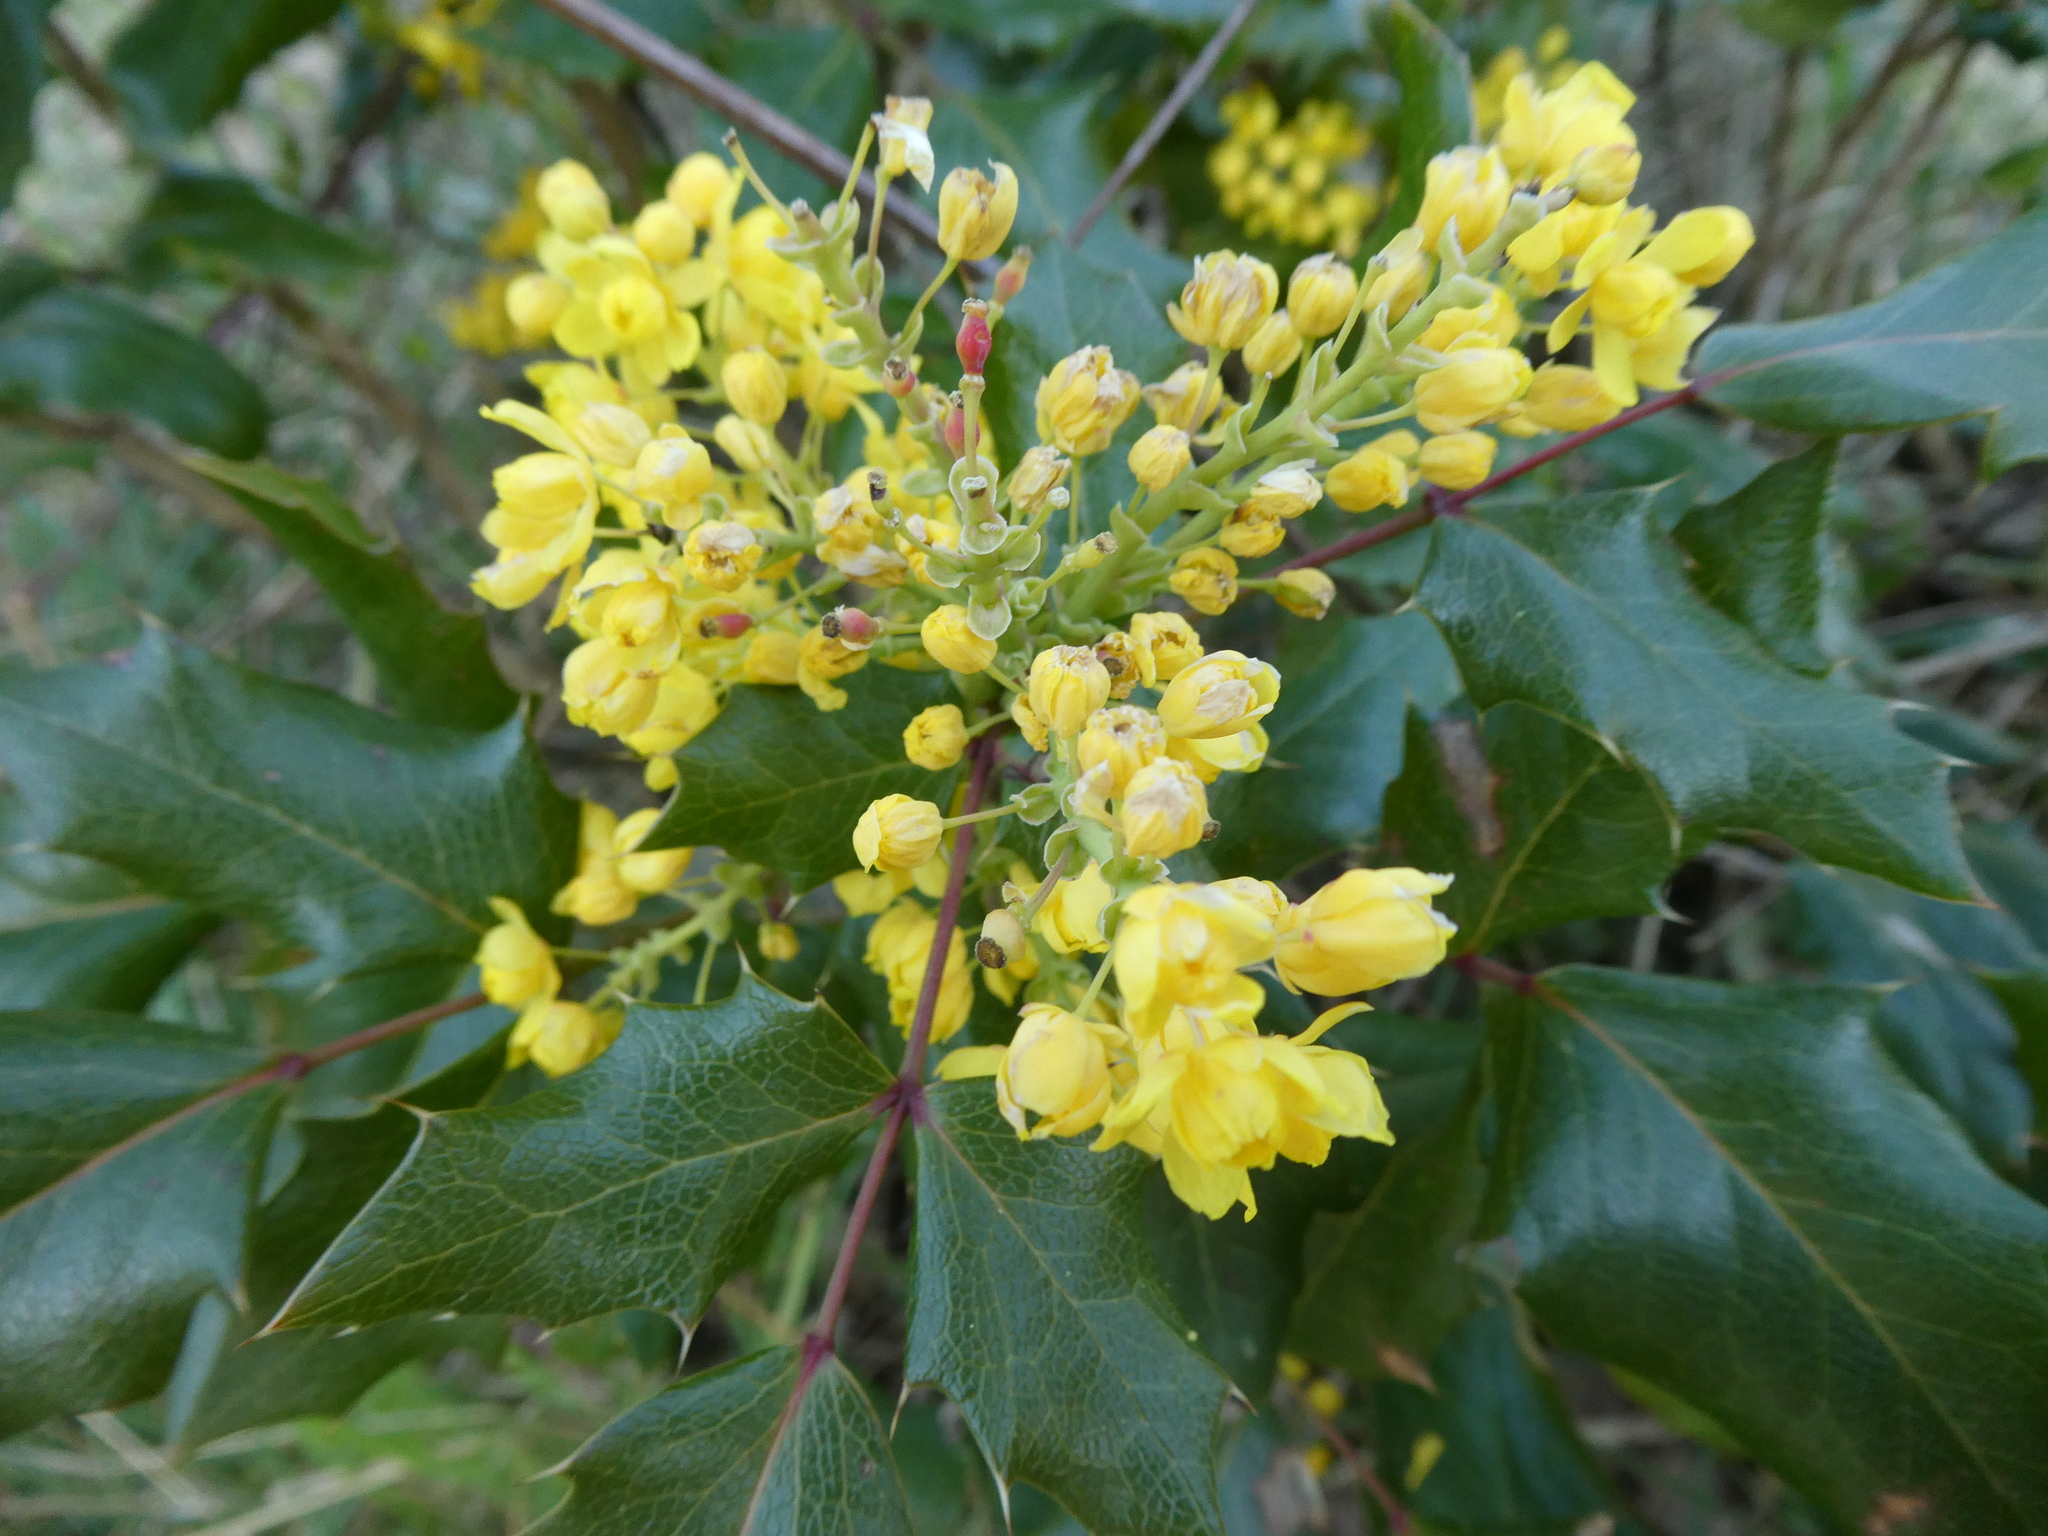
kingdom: Plantae
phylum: Tracheophyta
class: Magnoliopsida
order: Ranunculales
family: Berberidaceae
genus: Mahonia
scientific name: Mahonia aquifolium
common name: Oregon-grape
